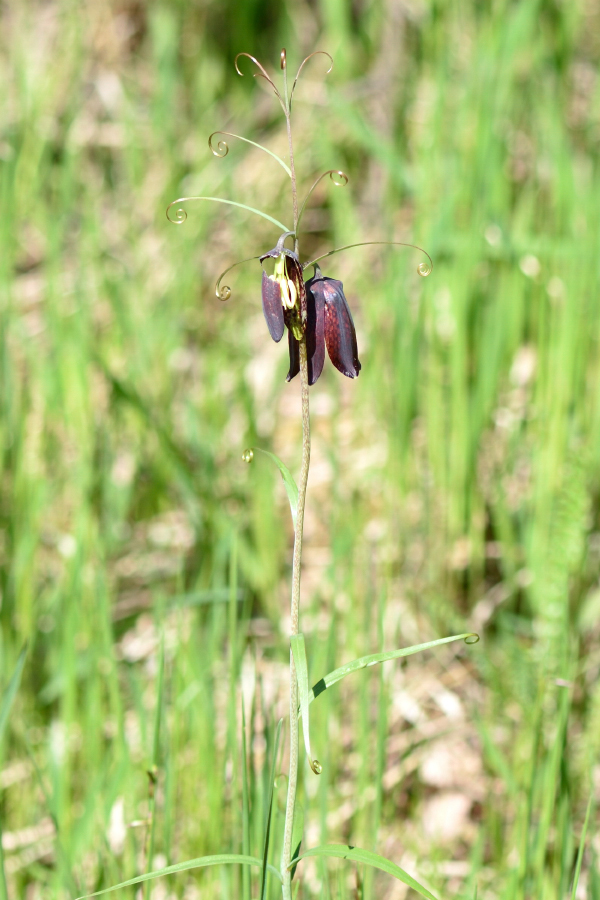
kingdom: Plantae
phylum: Tracheophyta
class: Liliopsida
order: Liliales
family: Liliaceae
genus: Fritillaria
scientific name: Fritillaria ruthenica
